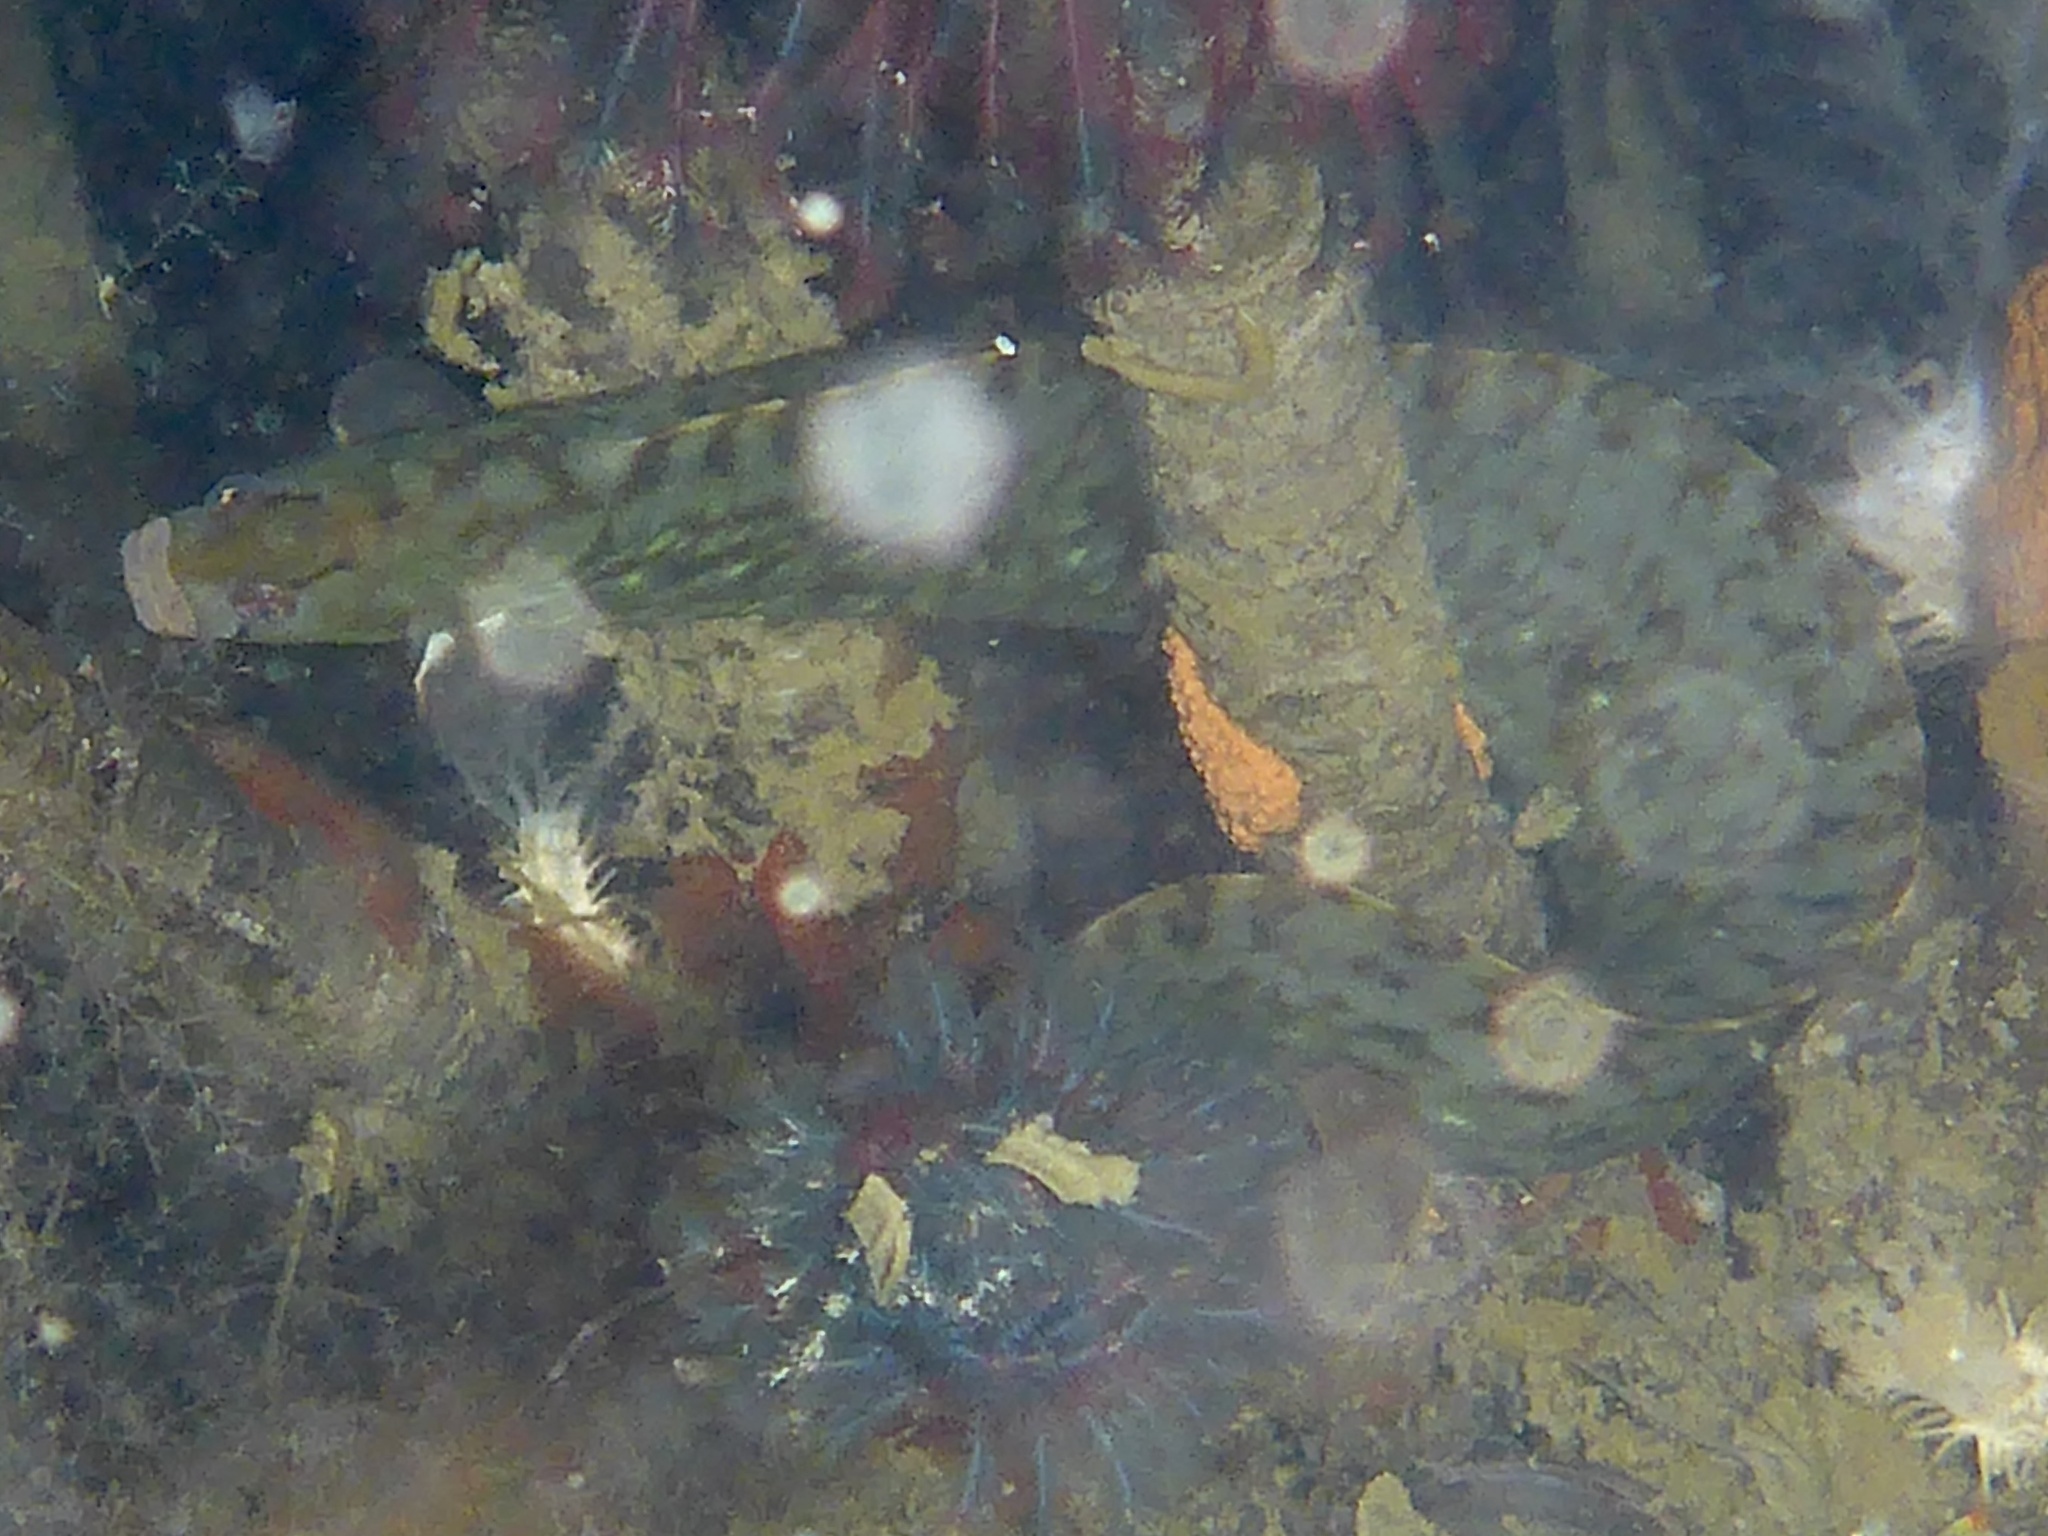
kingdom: Animalia
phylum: Chordata
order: Perciformes
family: Pholidae
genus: Apodichthys
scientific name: Apodichthys flavidus
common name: Penpoint gunnel
